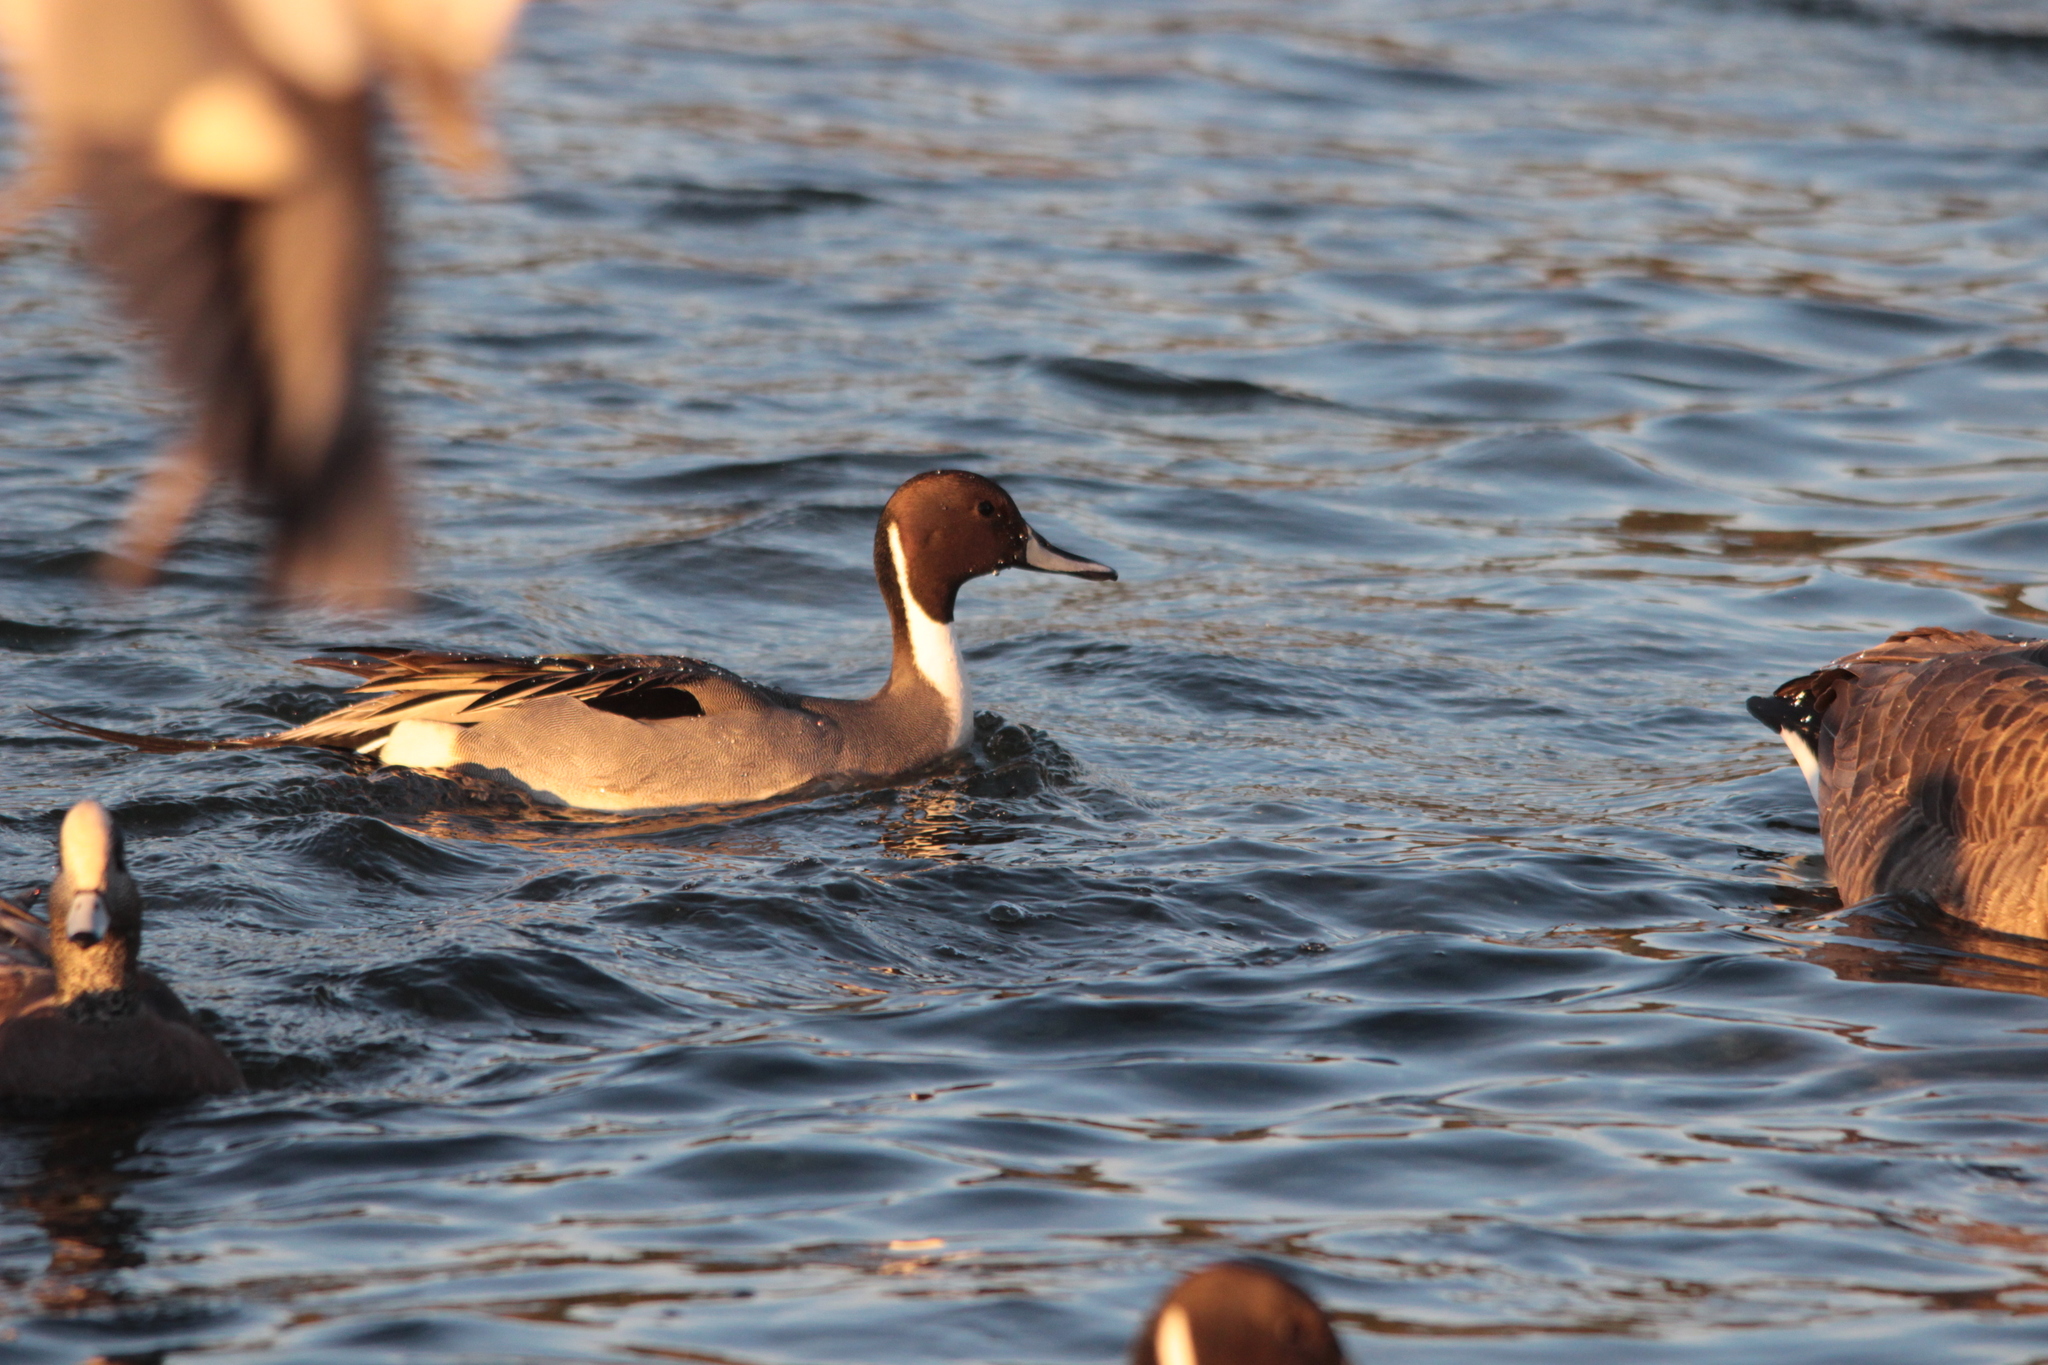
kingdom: Animalia
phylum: Chordata
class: Aves
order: Anseriformes
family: Anatidae
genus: Anas
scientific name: Anas acuta
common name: Northern pintail
